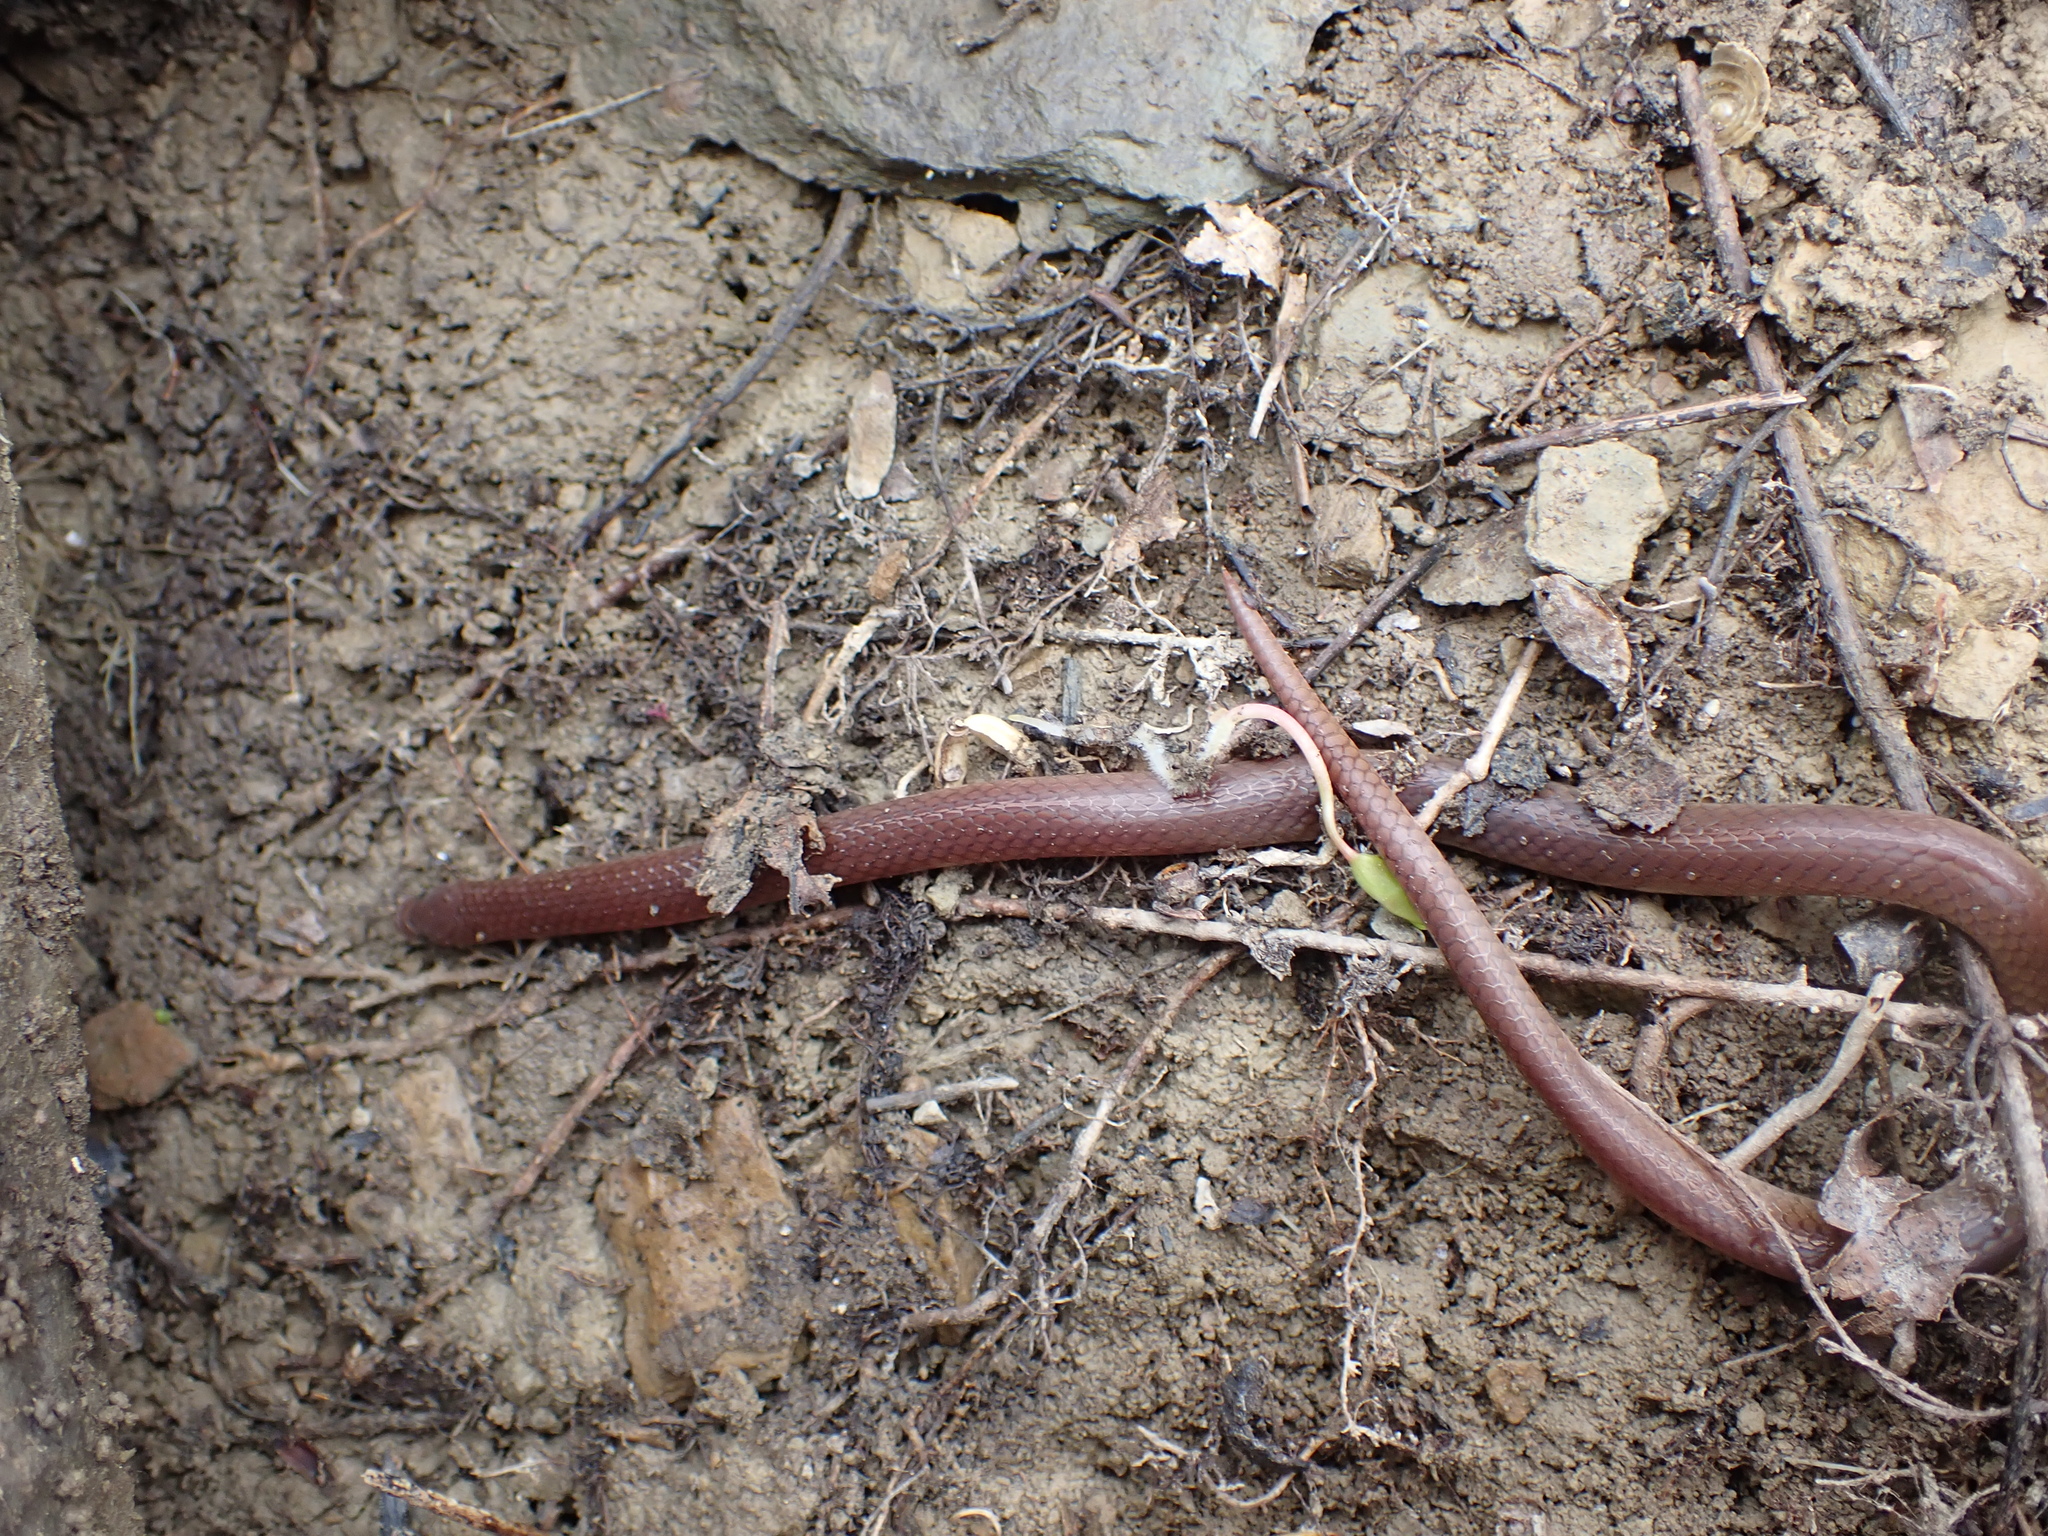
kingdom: Animalia
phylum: Chordata
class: Squamata
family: Colubridae
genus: Carphophis
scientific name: Carphophis amoenus
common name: Eastern worm snake
